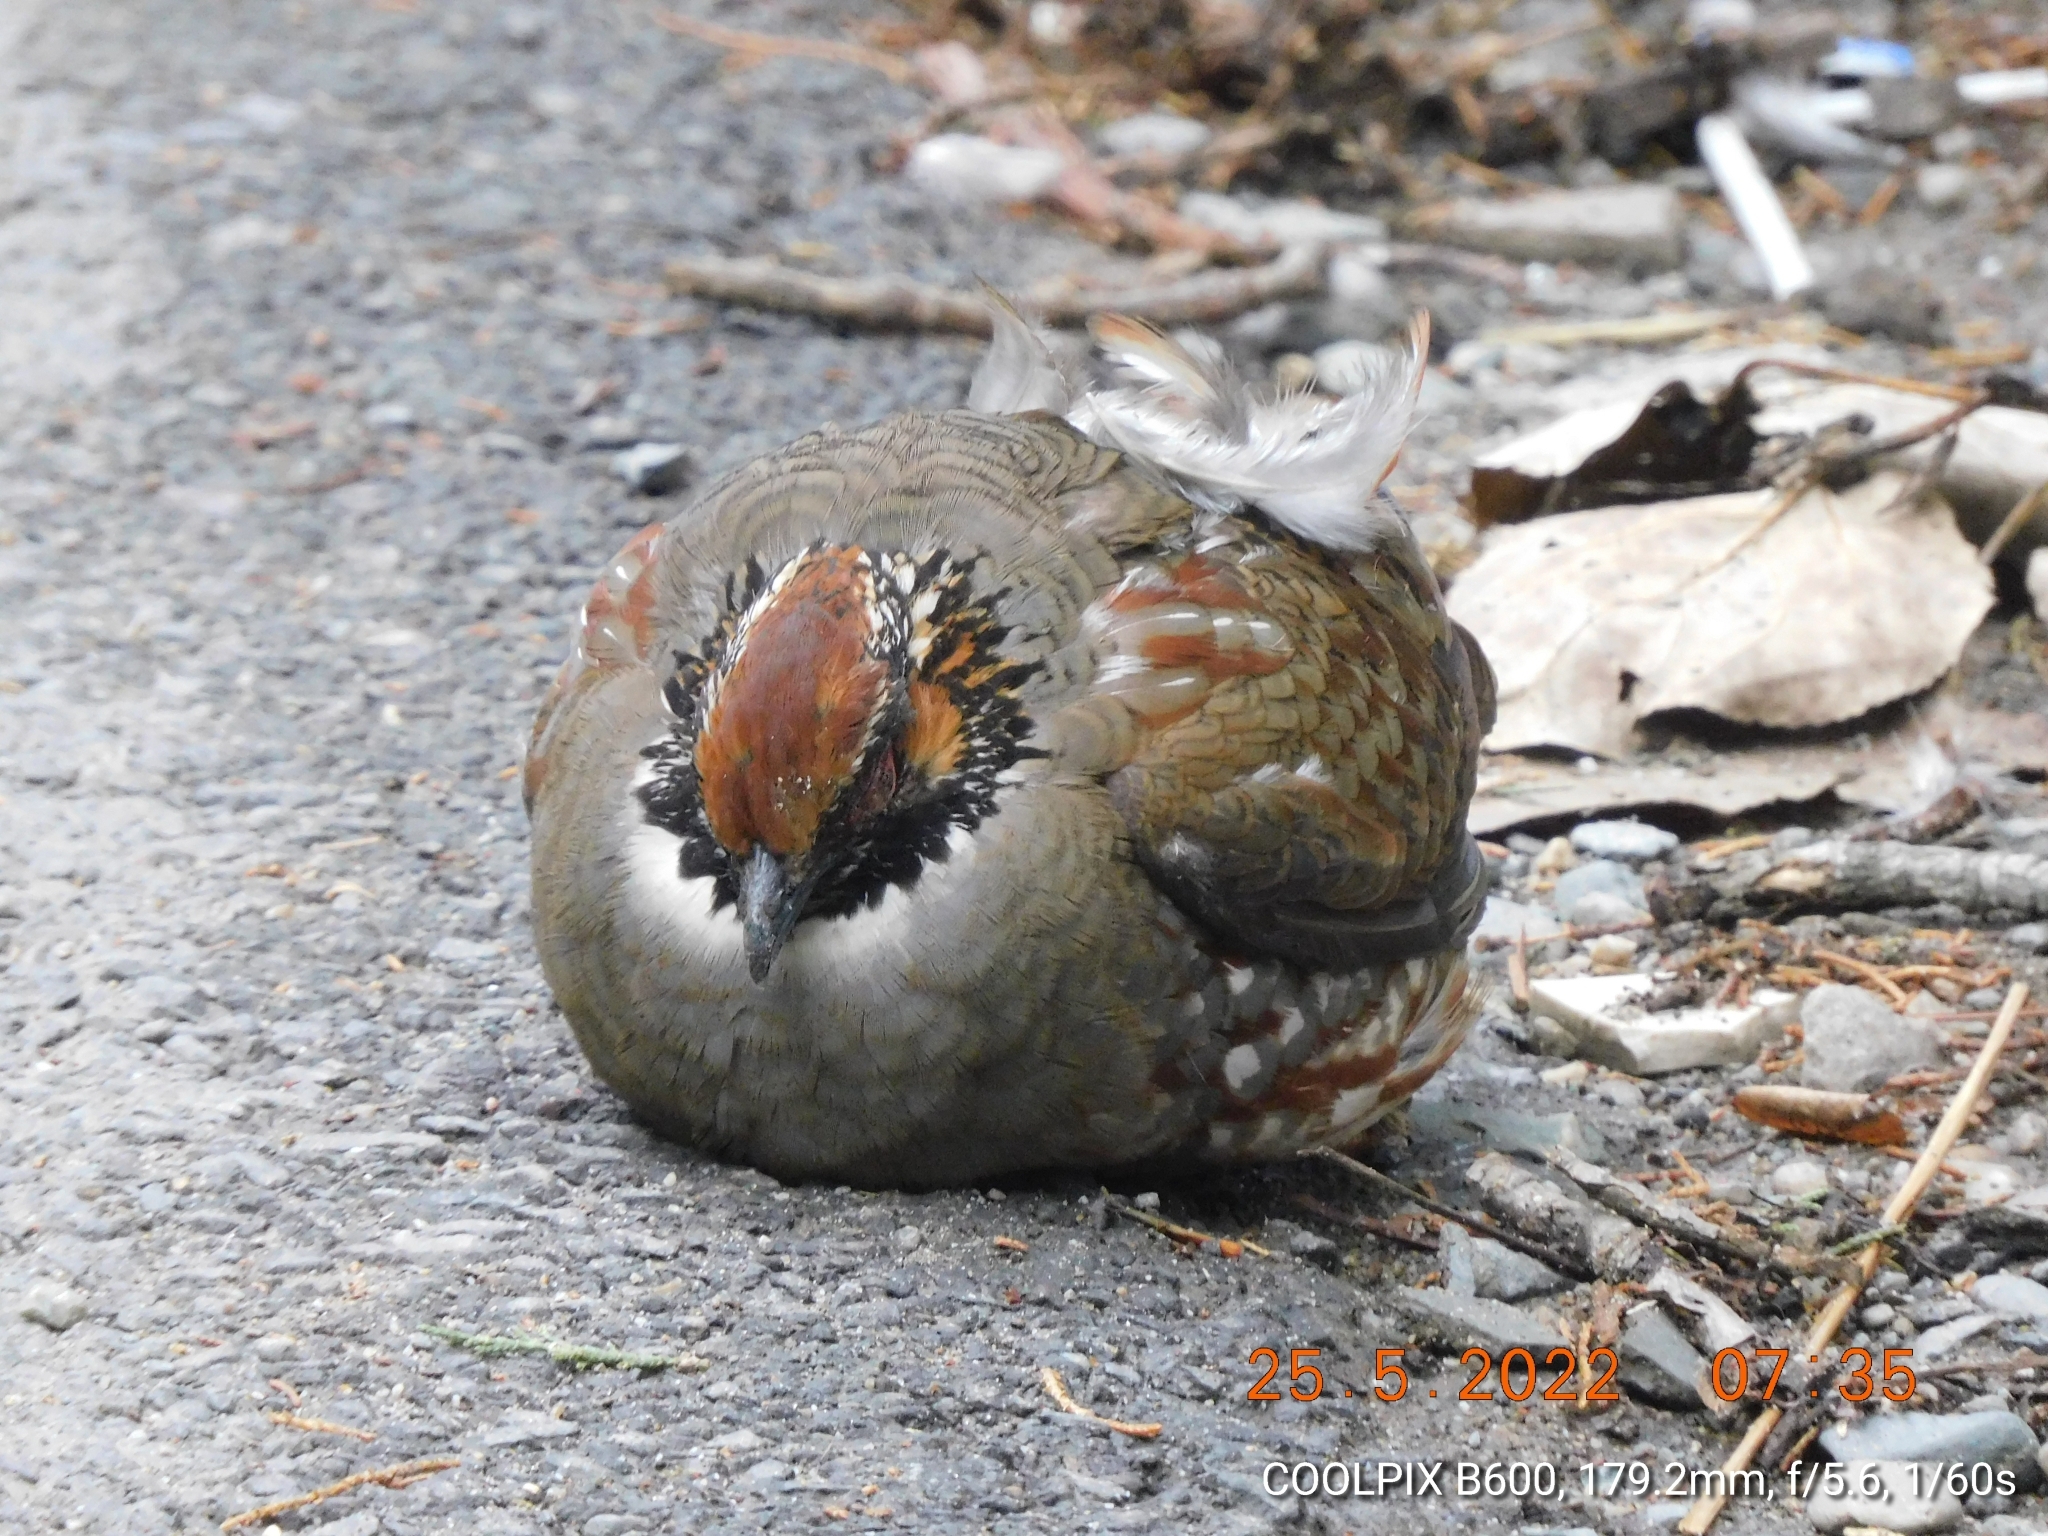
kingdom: Animalia
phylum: Chordata
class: Aves
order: Galliformes
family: Phasianidae
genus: Arborophila
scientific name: Arborophila torqueola
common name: Hill partridge
